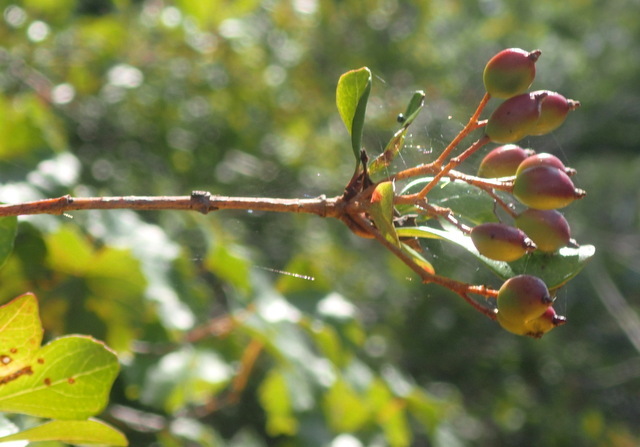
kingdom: Plantae
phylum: Tracheophyta
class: Magnoliopsida
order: Dipsacales
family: Viburnaceae
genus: Viburnum
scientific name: Viburnum obovatum
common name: Walter's viburnum
